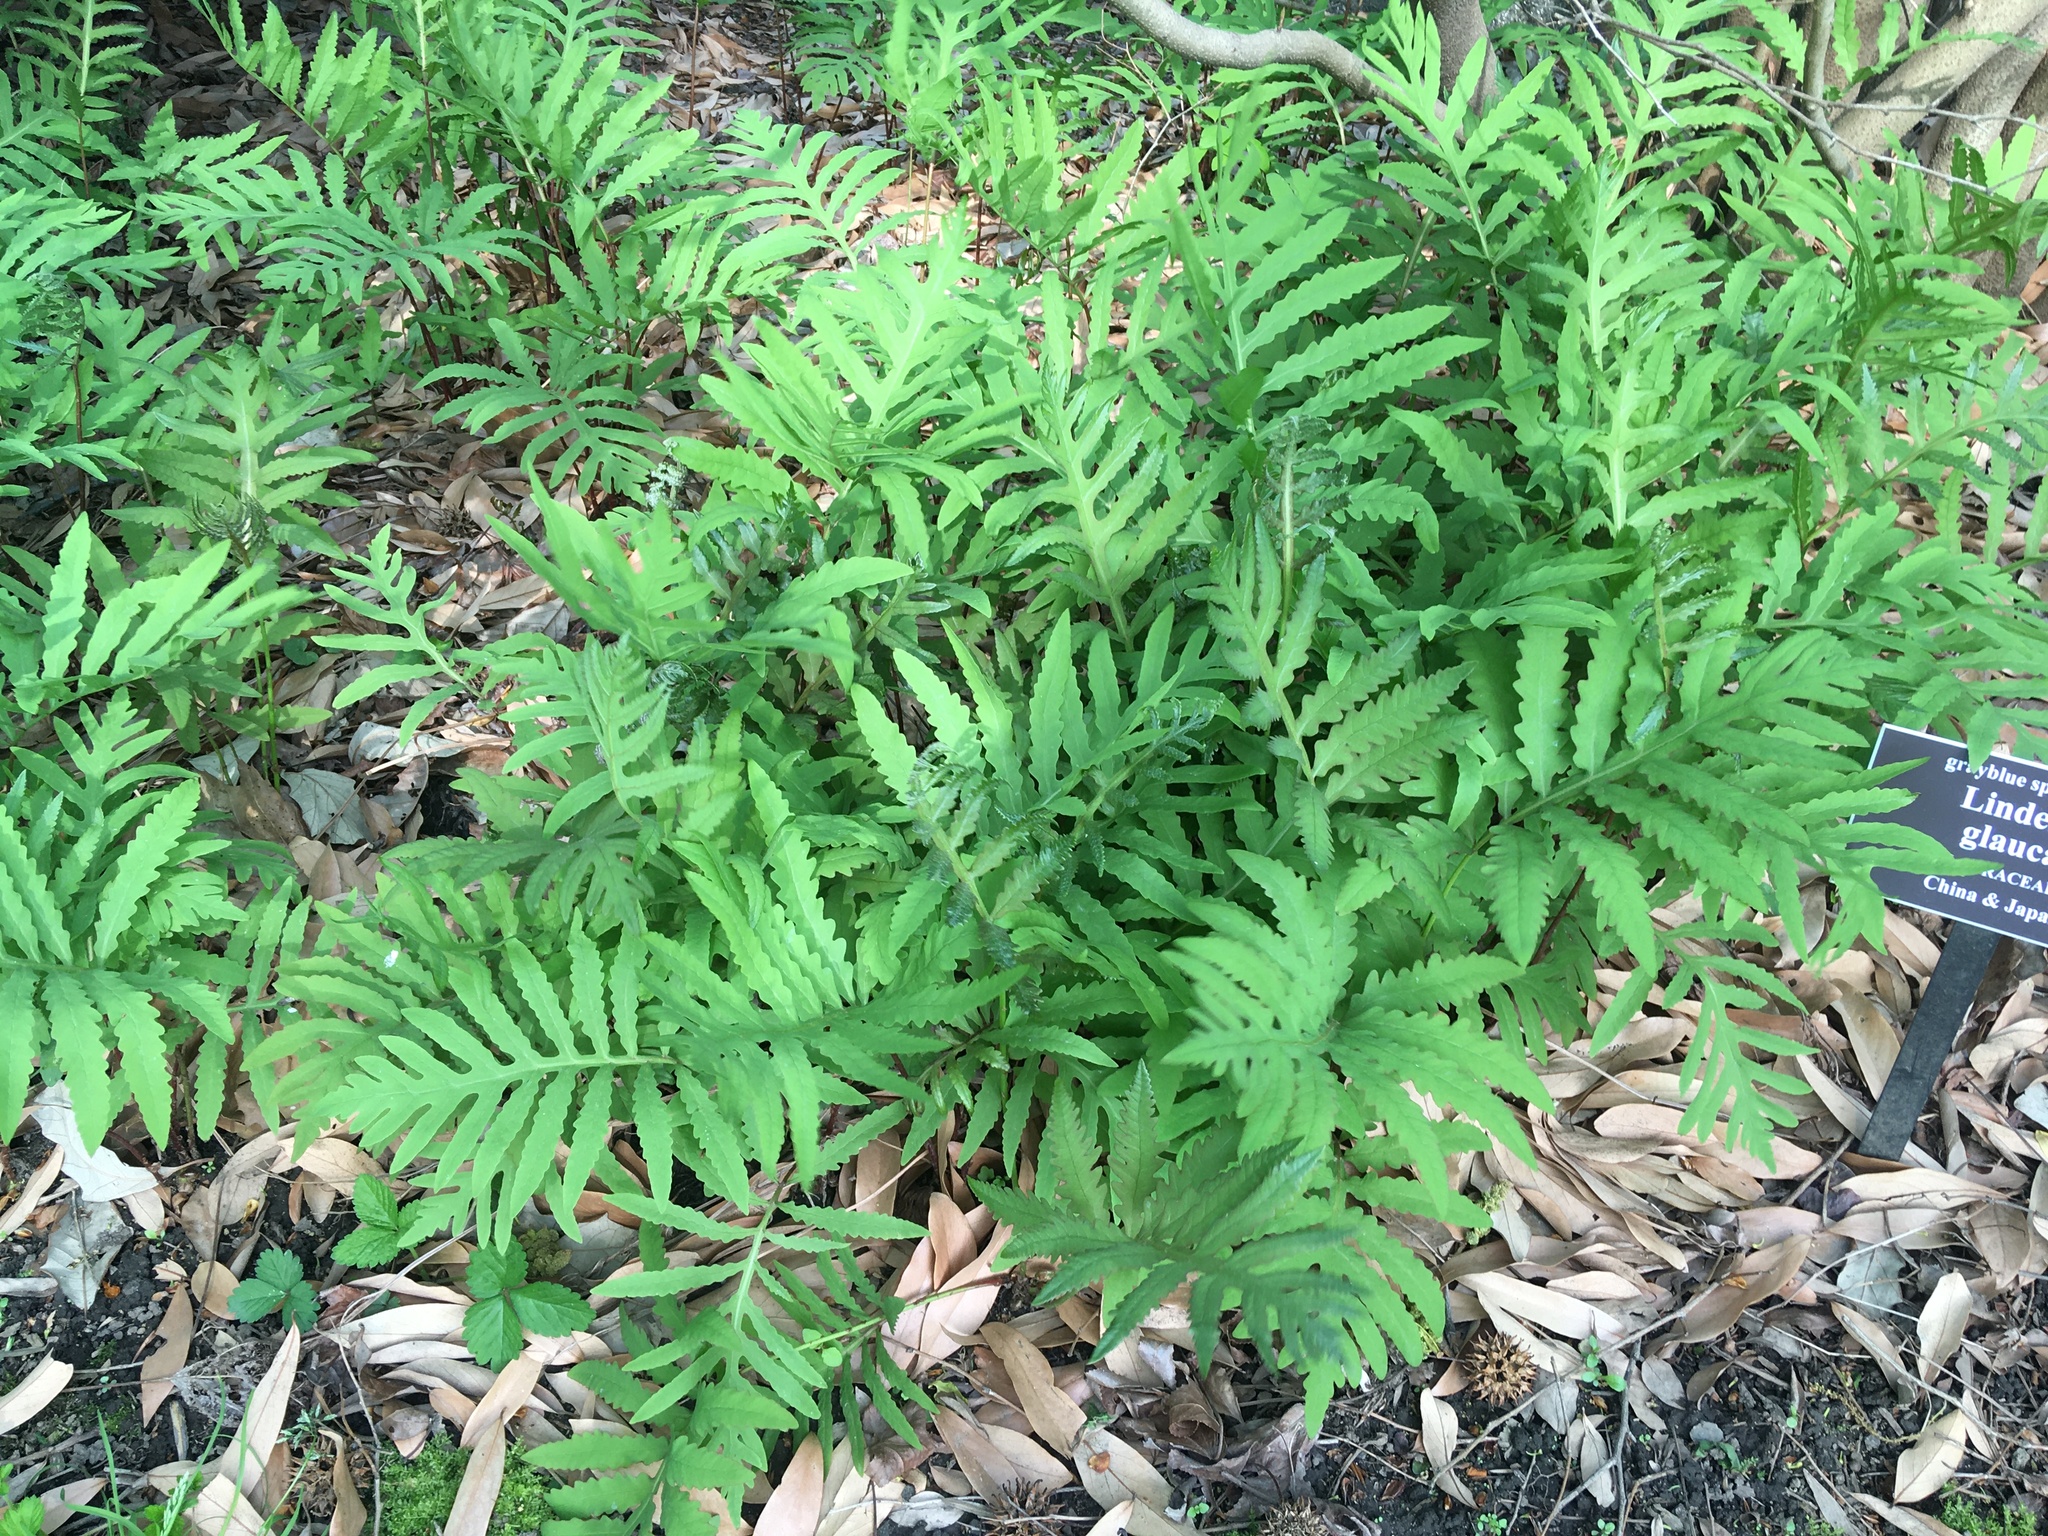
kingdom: Plantae
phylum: Tracheophyta
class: Polypodiopsida
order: Polypodiales
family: Onocleaceae
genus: Onoclea
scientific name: Onoclea sensibilis
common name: Sensitive fern
